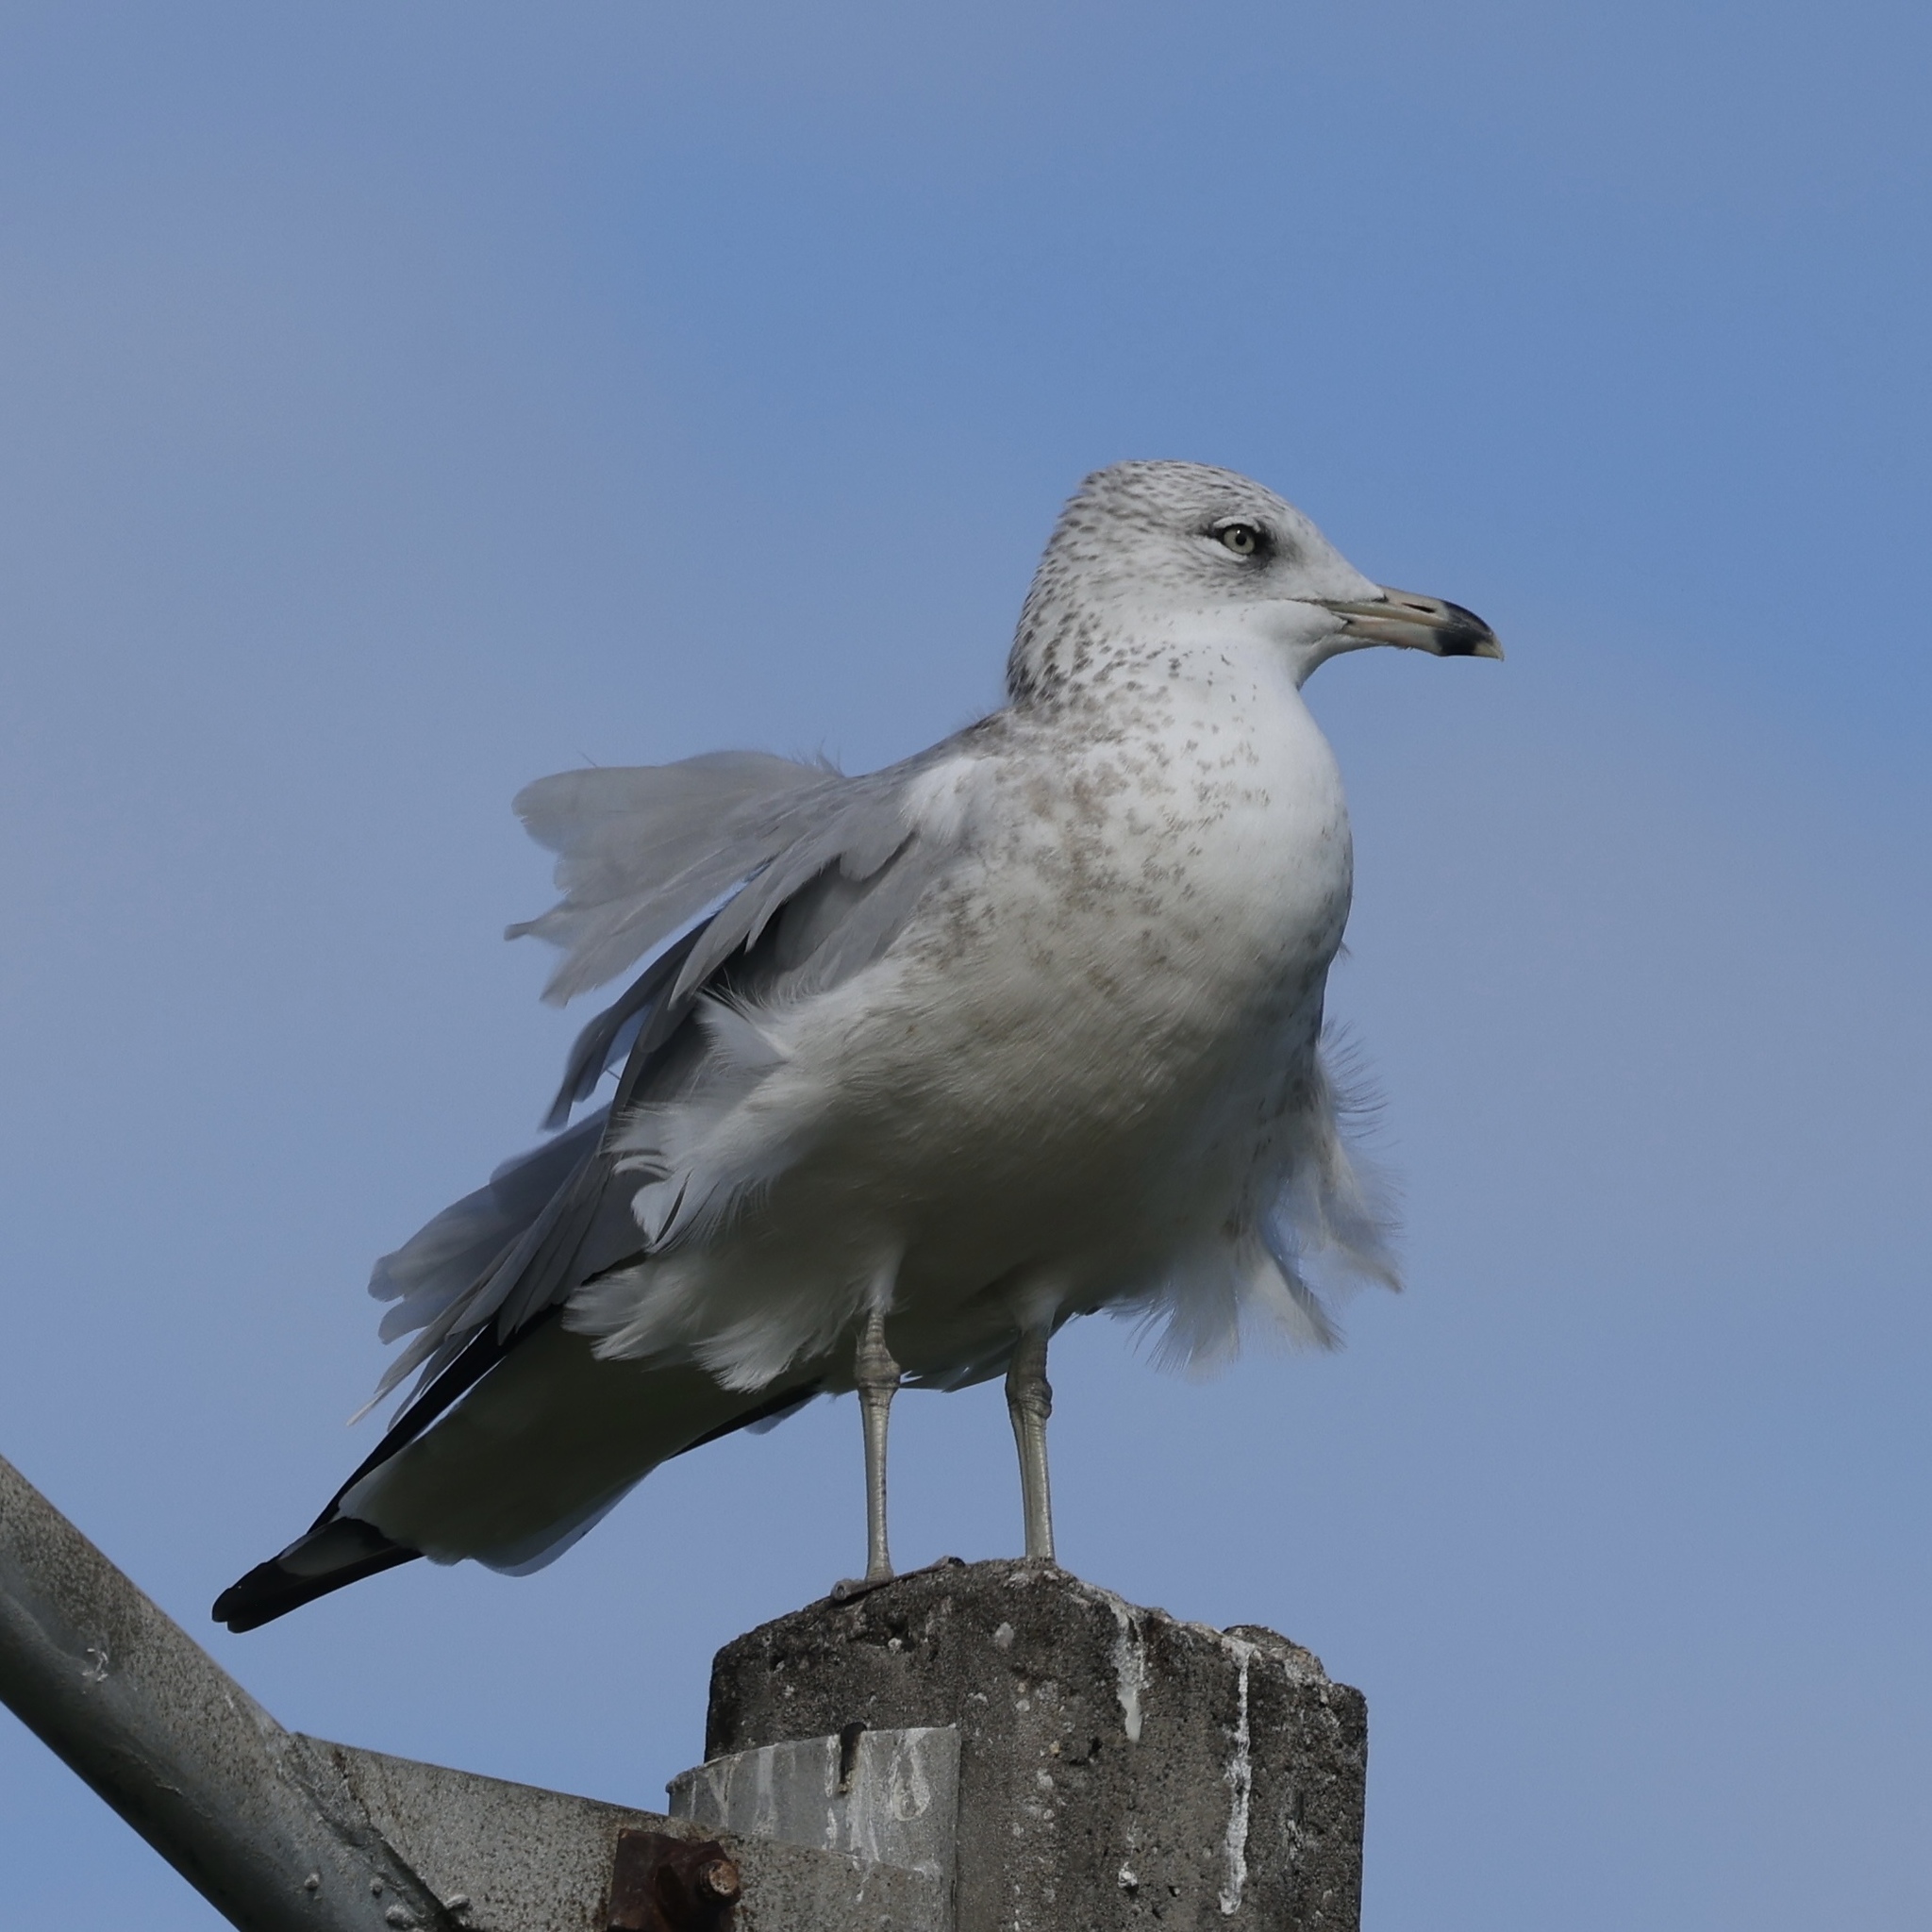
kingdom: Animalia
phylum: Chordata
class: Aves
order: Charadriiformes
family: Laridae
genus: Larus
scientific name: Larus delawarensis
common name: Ring-billed gull
